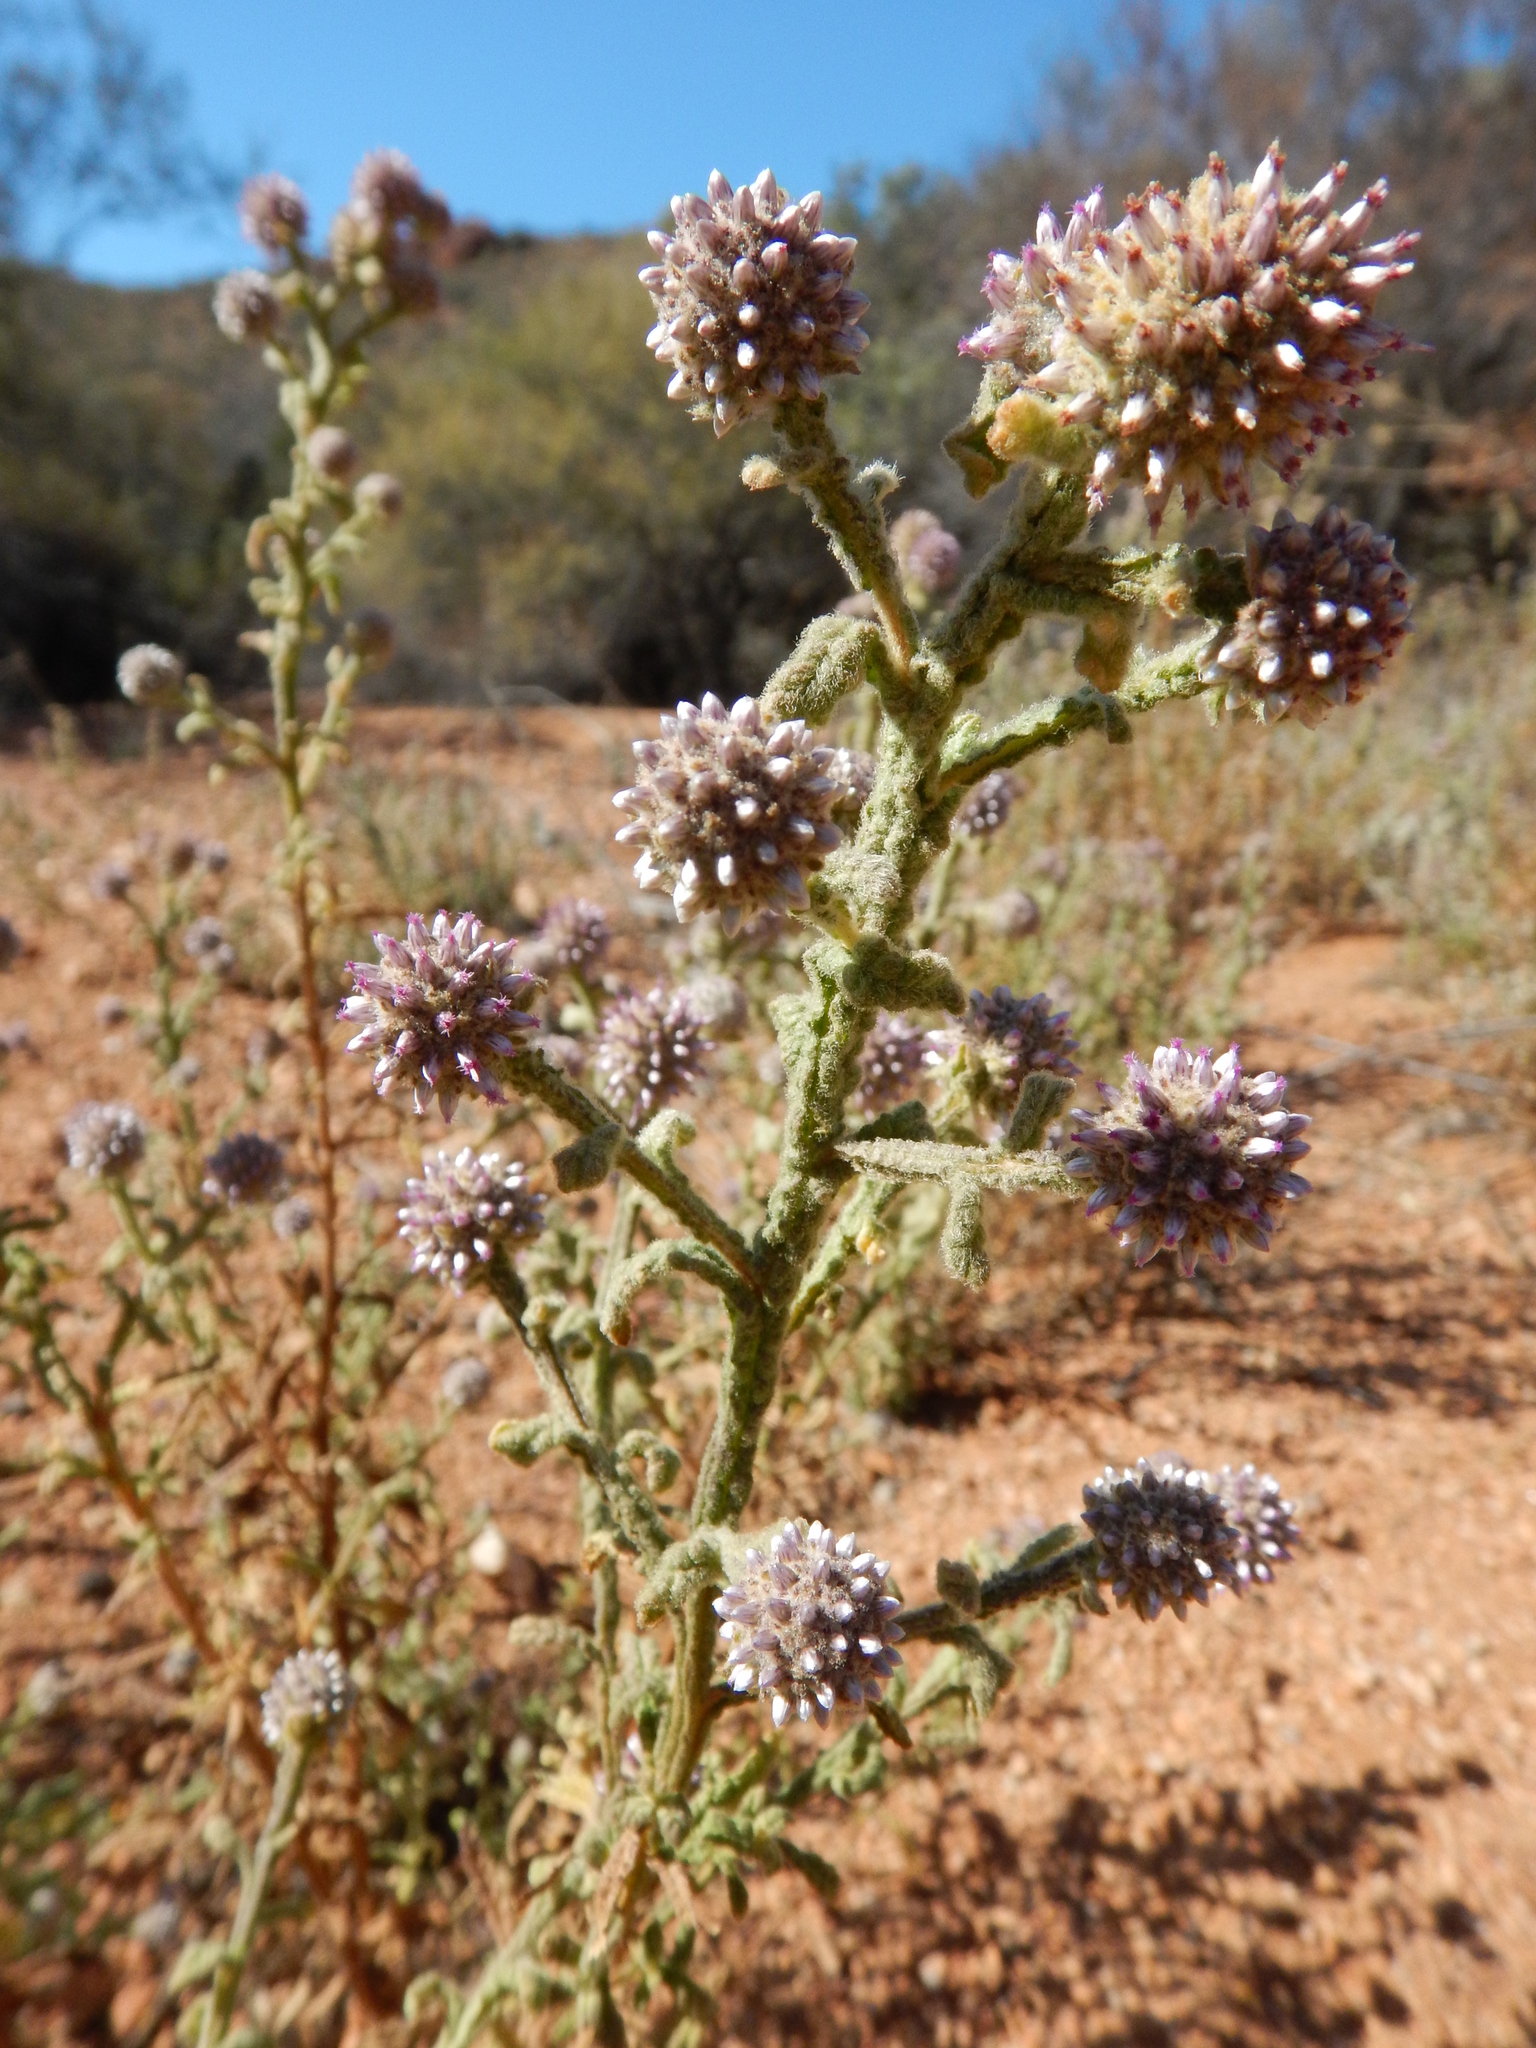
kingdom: Plantae
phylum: Tracheophyta
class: Magnoliopsida
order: Asterales
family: Asteraceae
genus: Pterocaulon
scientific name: Pterocaulon sphacelatum
